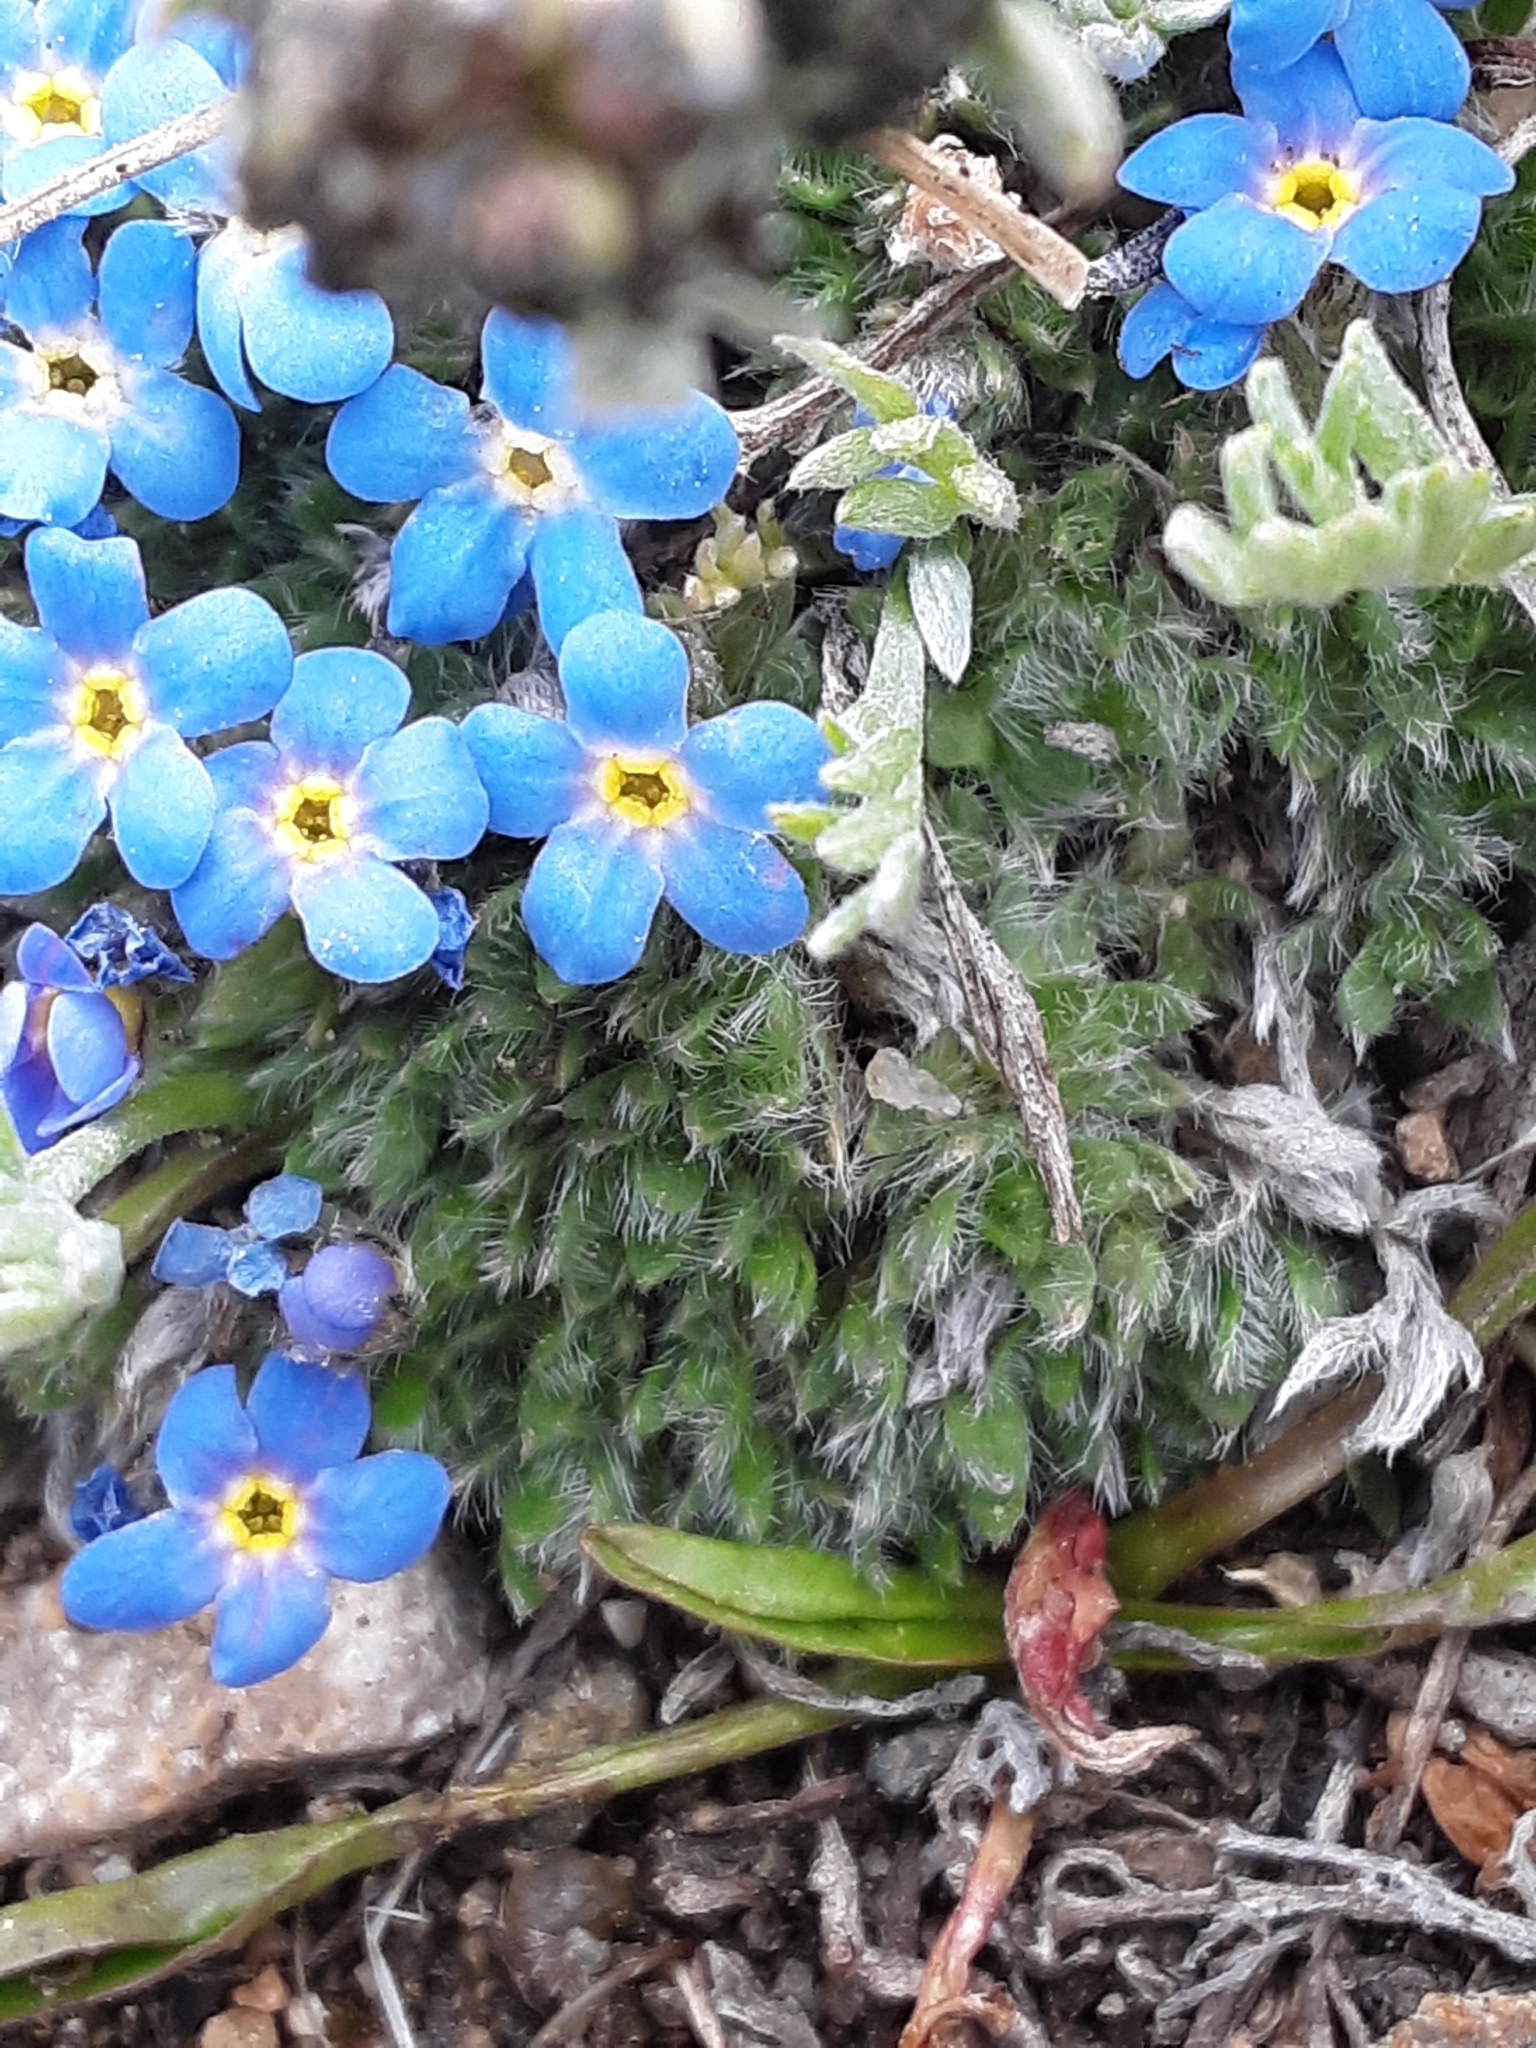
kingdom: Plantae
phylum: Tracheophyta
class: Magnoliopsida
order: Boraginales
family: Boraginaceae
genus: Eritrichium
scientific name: Eritrichium argenteum
